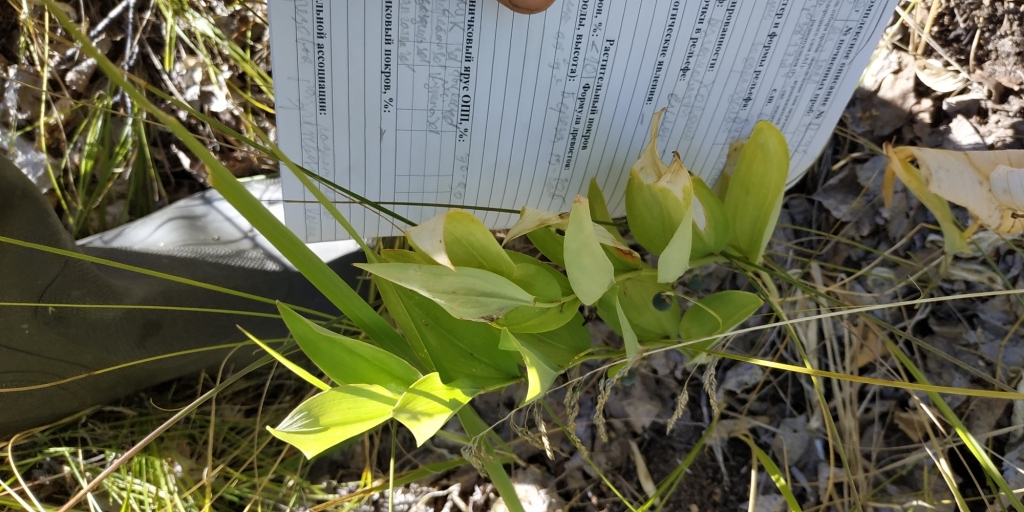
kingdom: Plantae
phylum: Tracheophyta
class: Liliopsida
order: Asparagales
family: Asparagaceae
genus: Polygonatum
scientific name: Polygonatum odoratum
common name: Angular solomon's-seal
